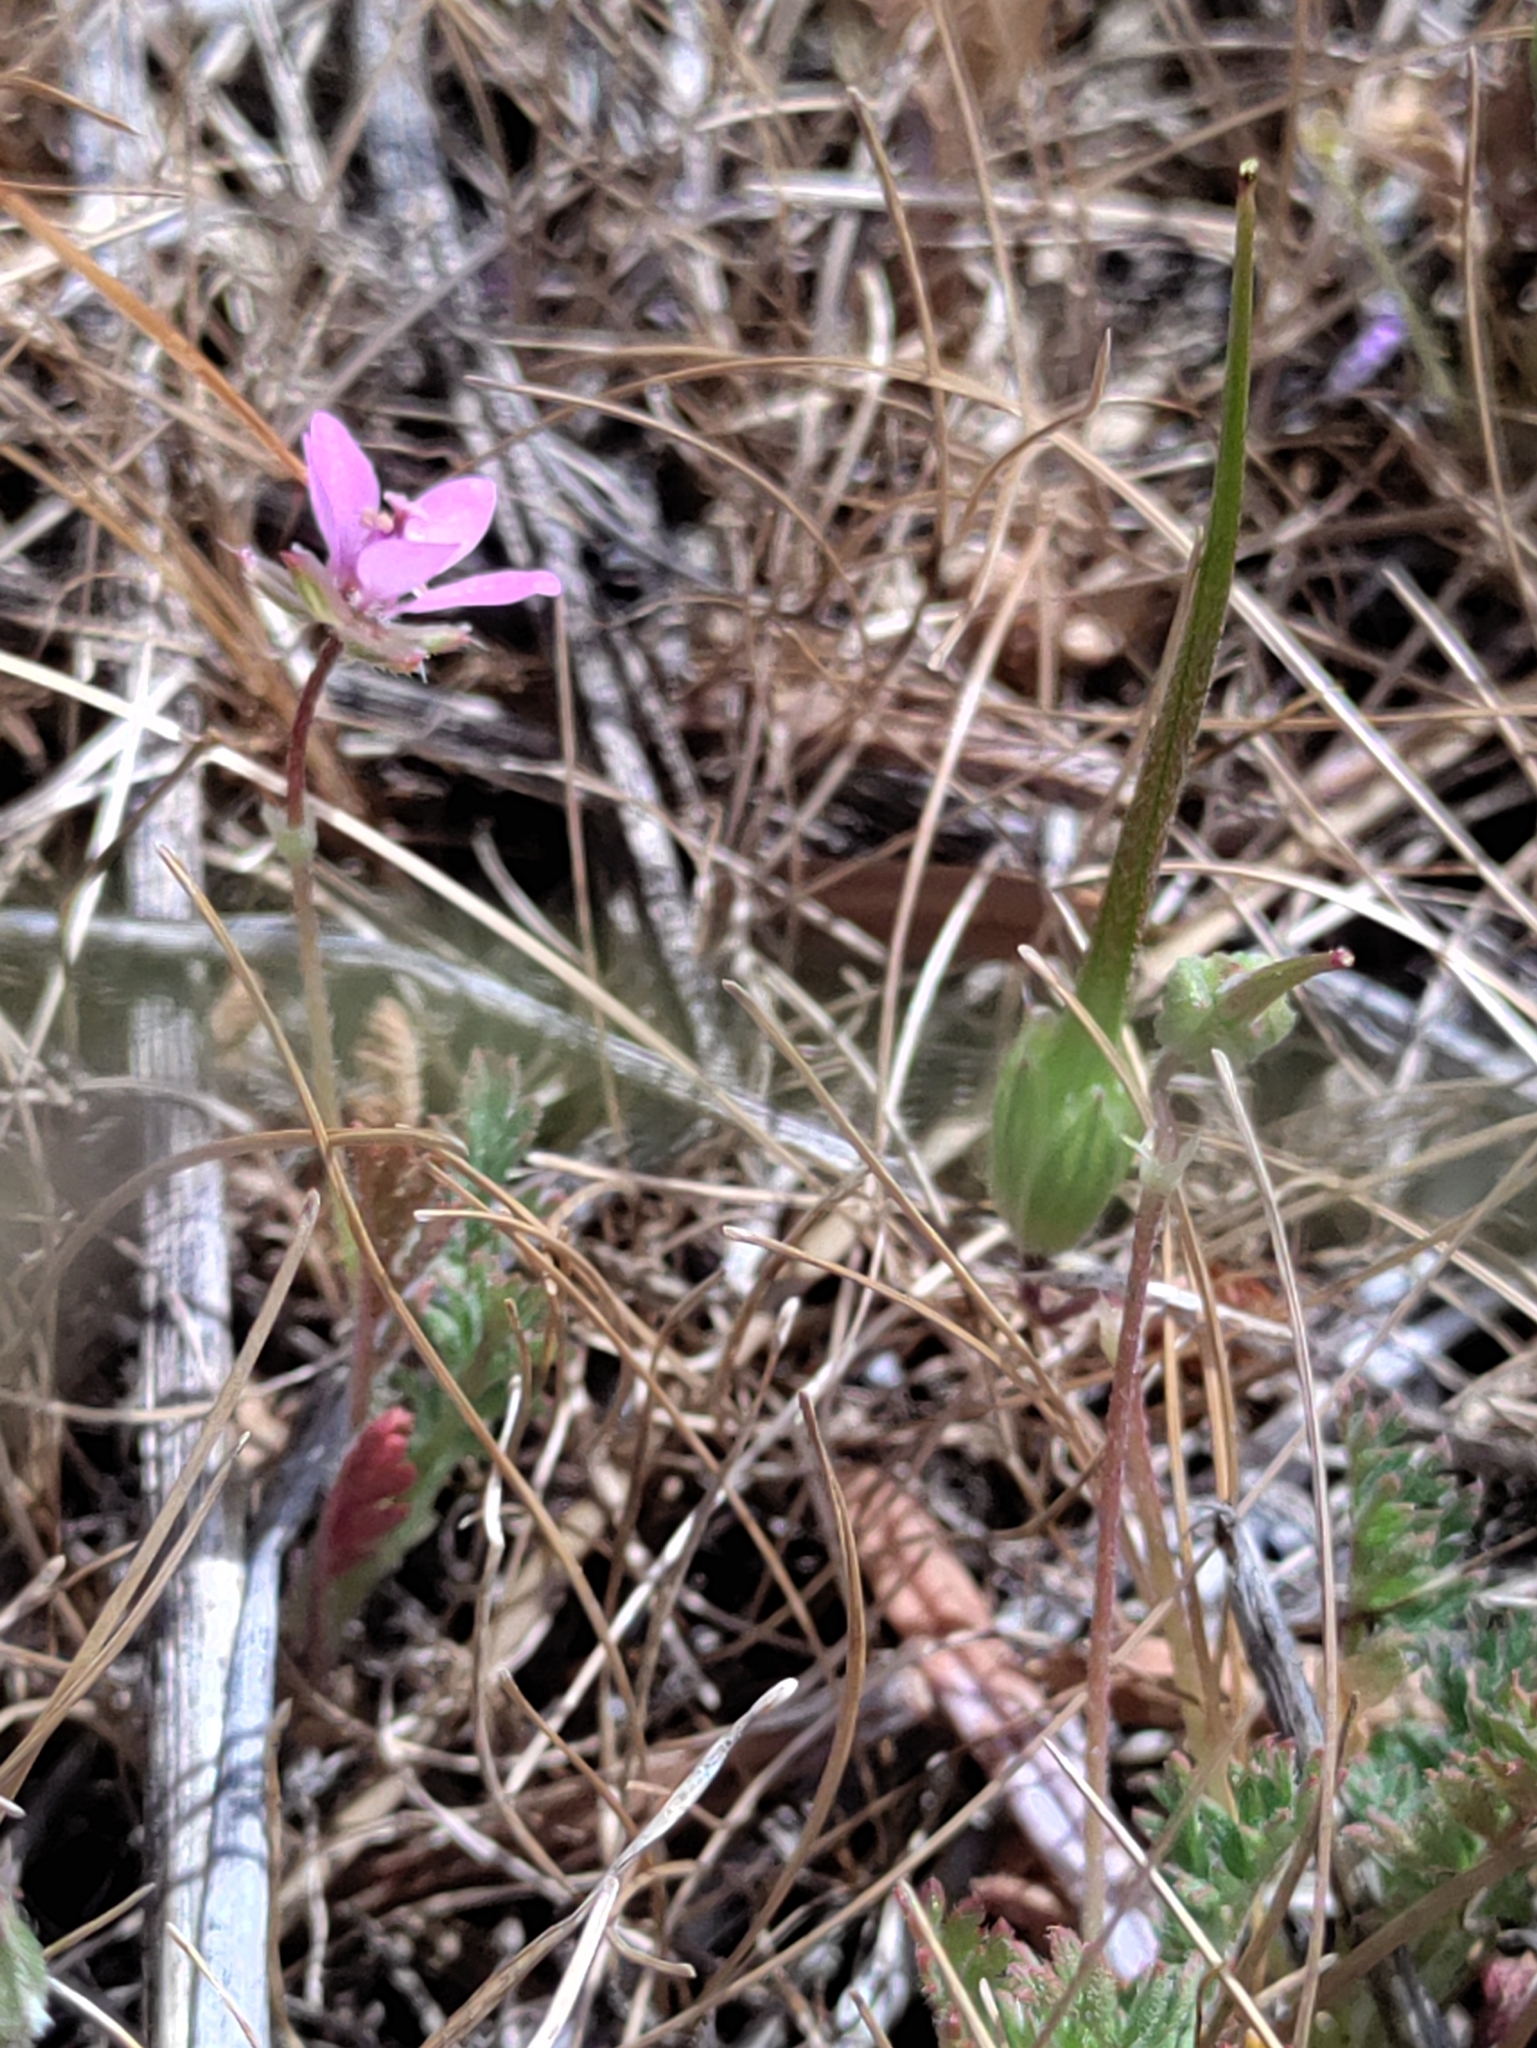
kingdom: Plantae
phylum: Tracheophyta
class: Magnoliopsida
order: Geraniales
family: Geraniaceae
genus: Erodium
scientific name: Erodium cicutarium
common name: Common stork's-bill
